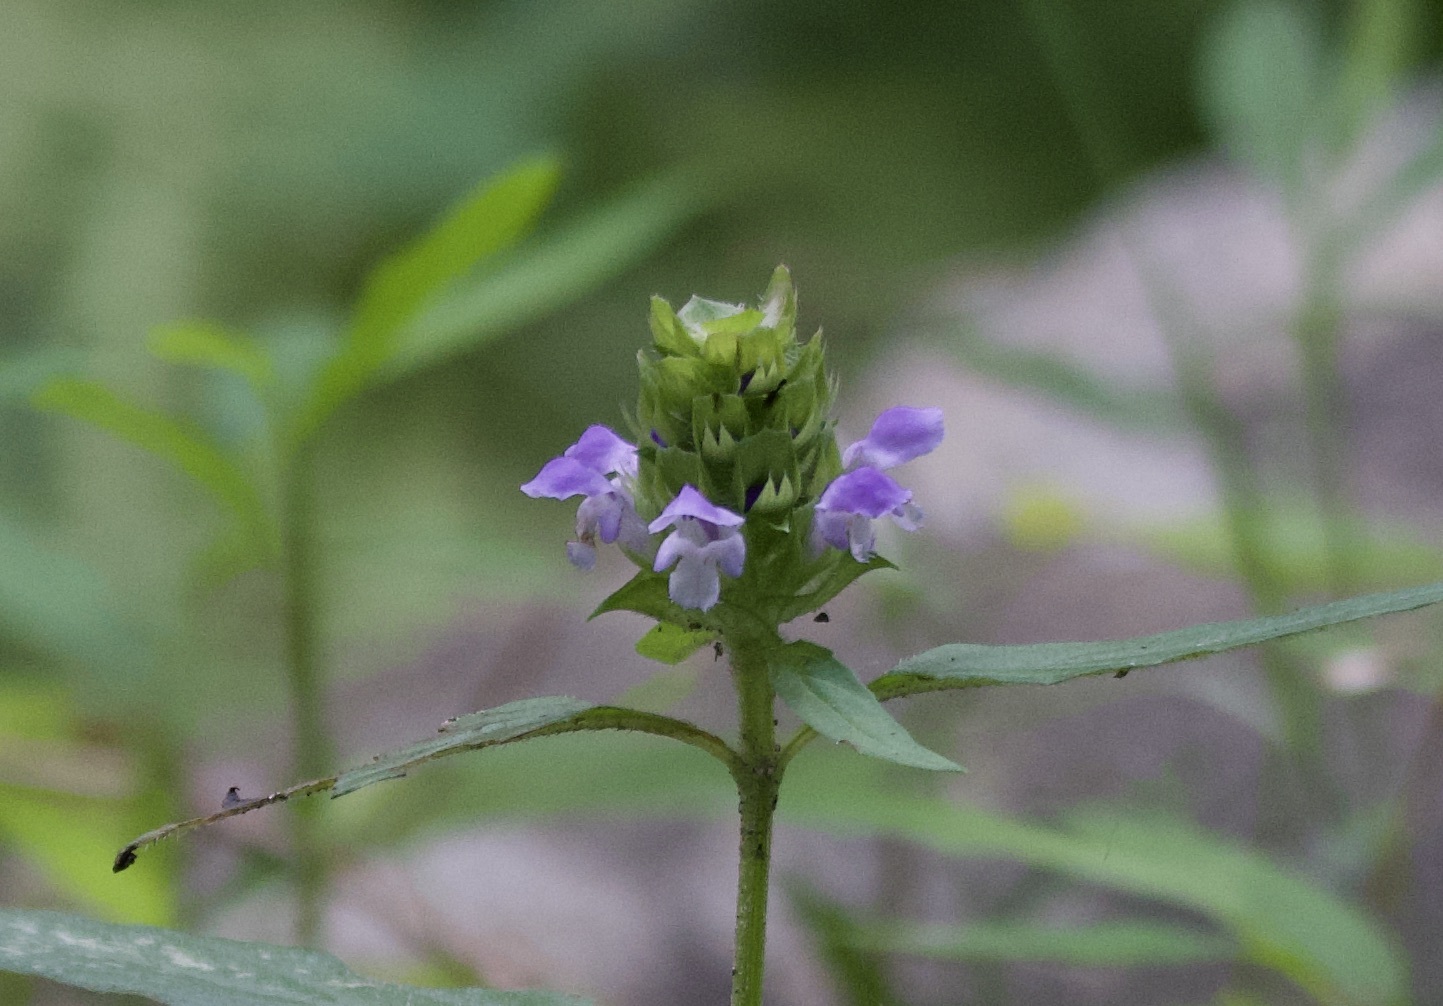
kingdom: Plantae
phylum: Tracheophyta
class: Magnoliopsida
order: Lamiales
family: Lamiaceae
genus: Prunella
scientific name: Prunella vulgaris
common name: Heal-all
